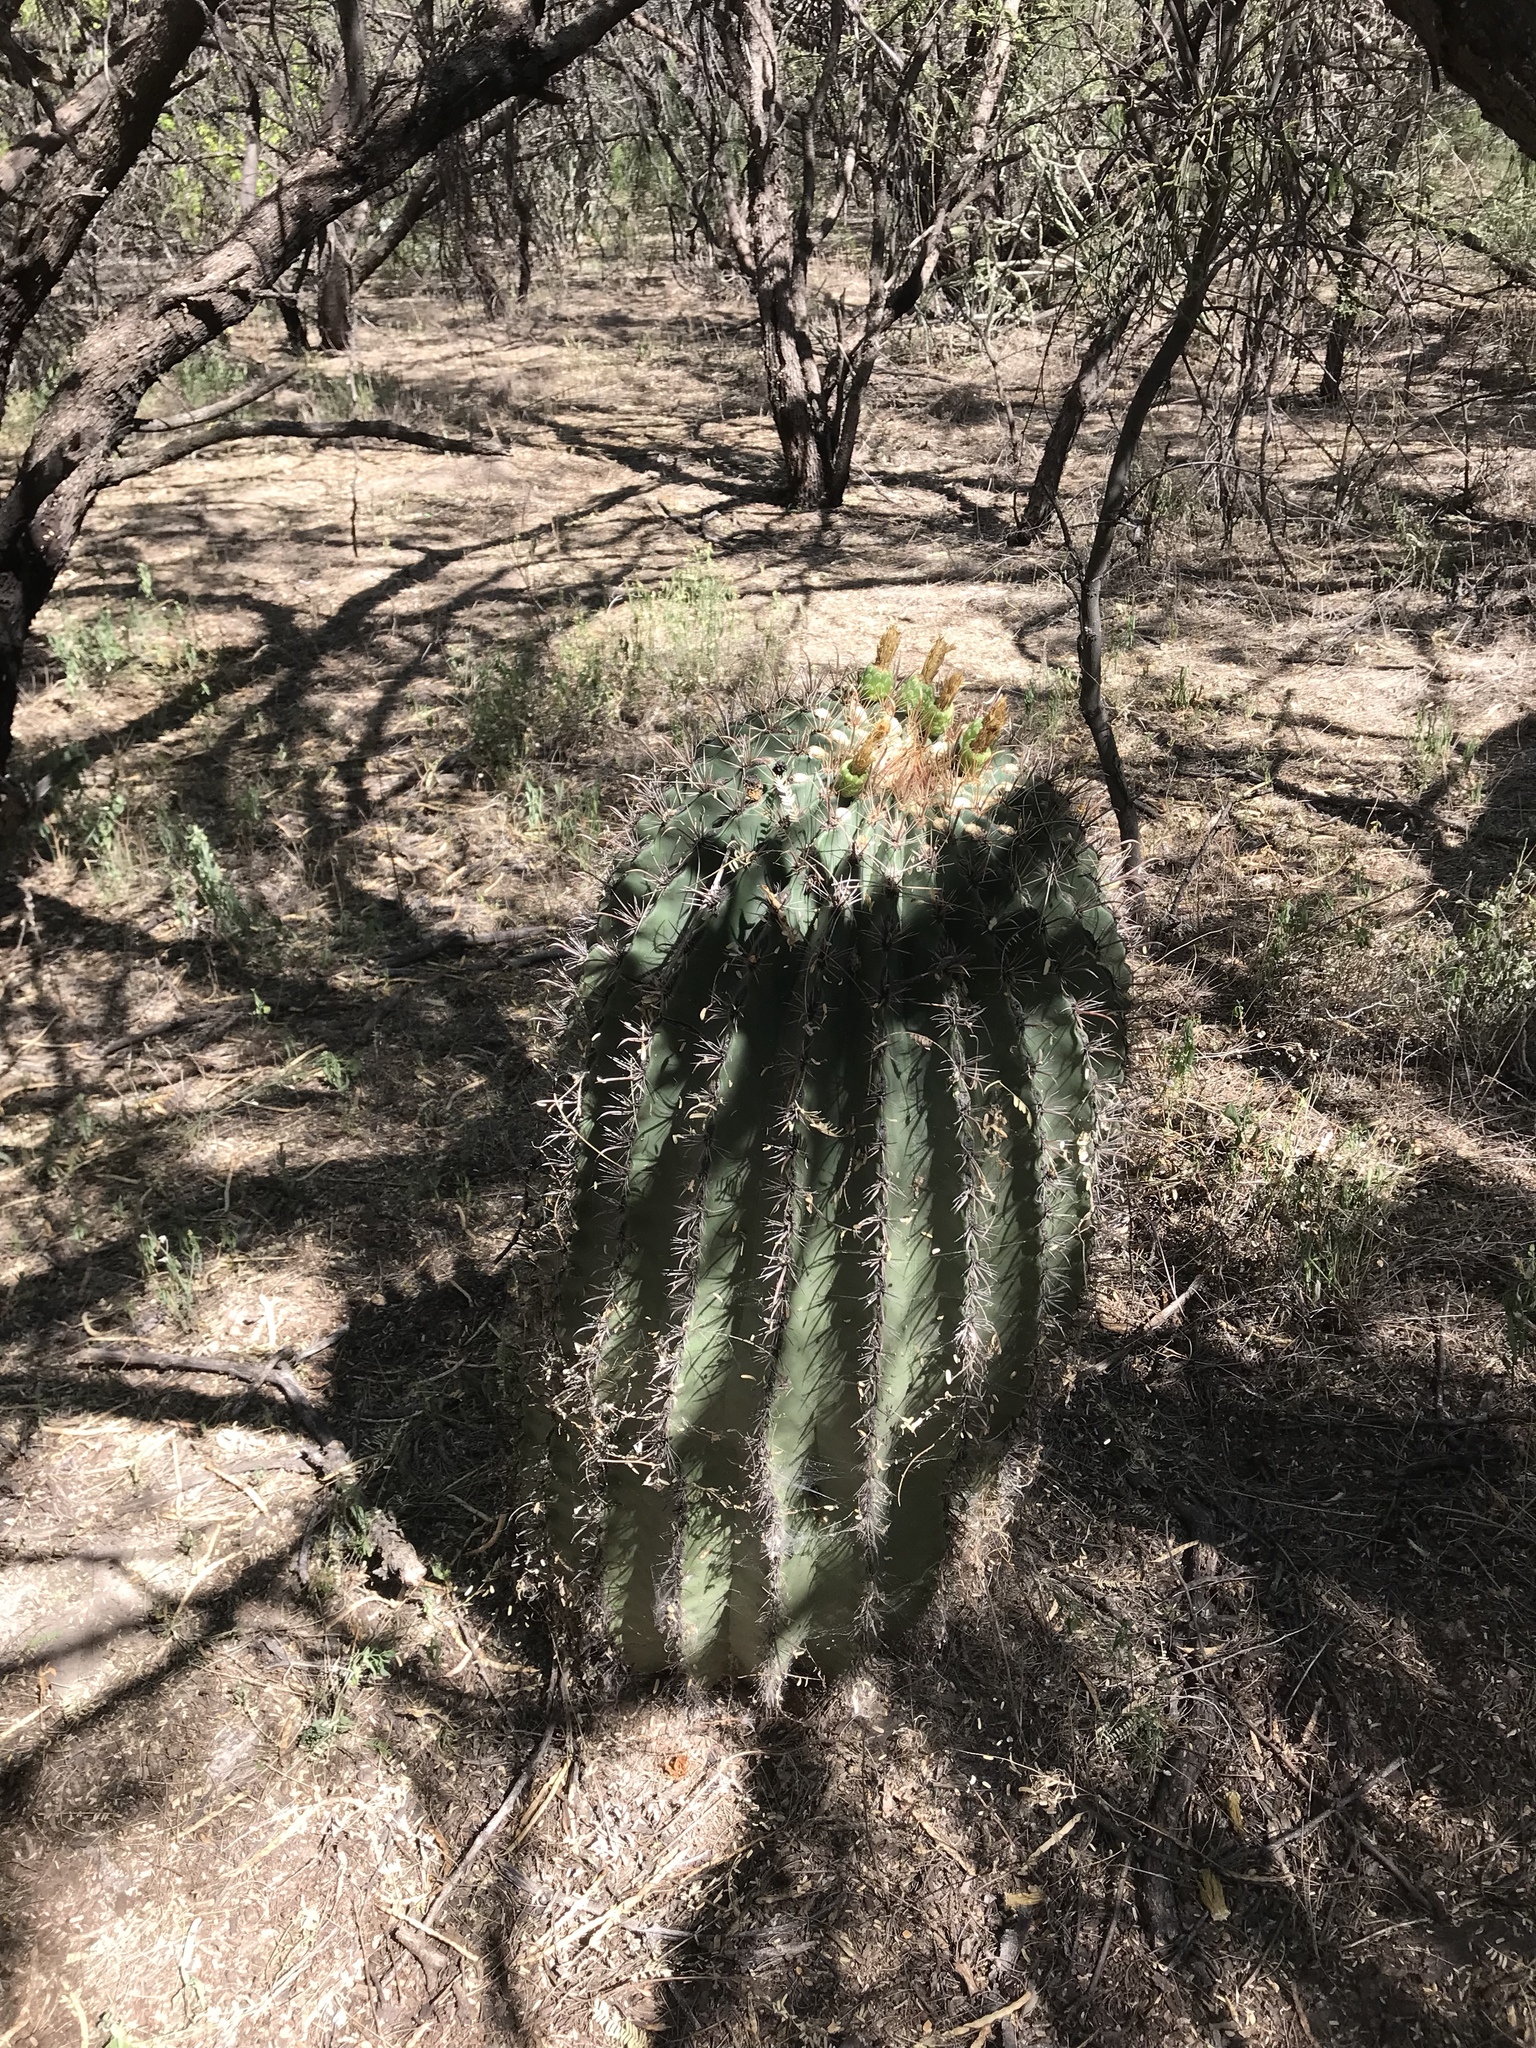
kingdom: Plantae
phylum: Tracheophyta
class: Magnoliopsida
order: Caryophyllales
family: Cactaceae
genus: Ferocactus
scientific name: Ferocactus wislizeni
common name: Candy barrel cactus
